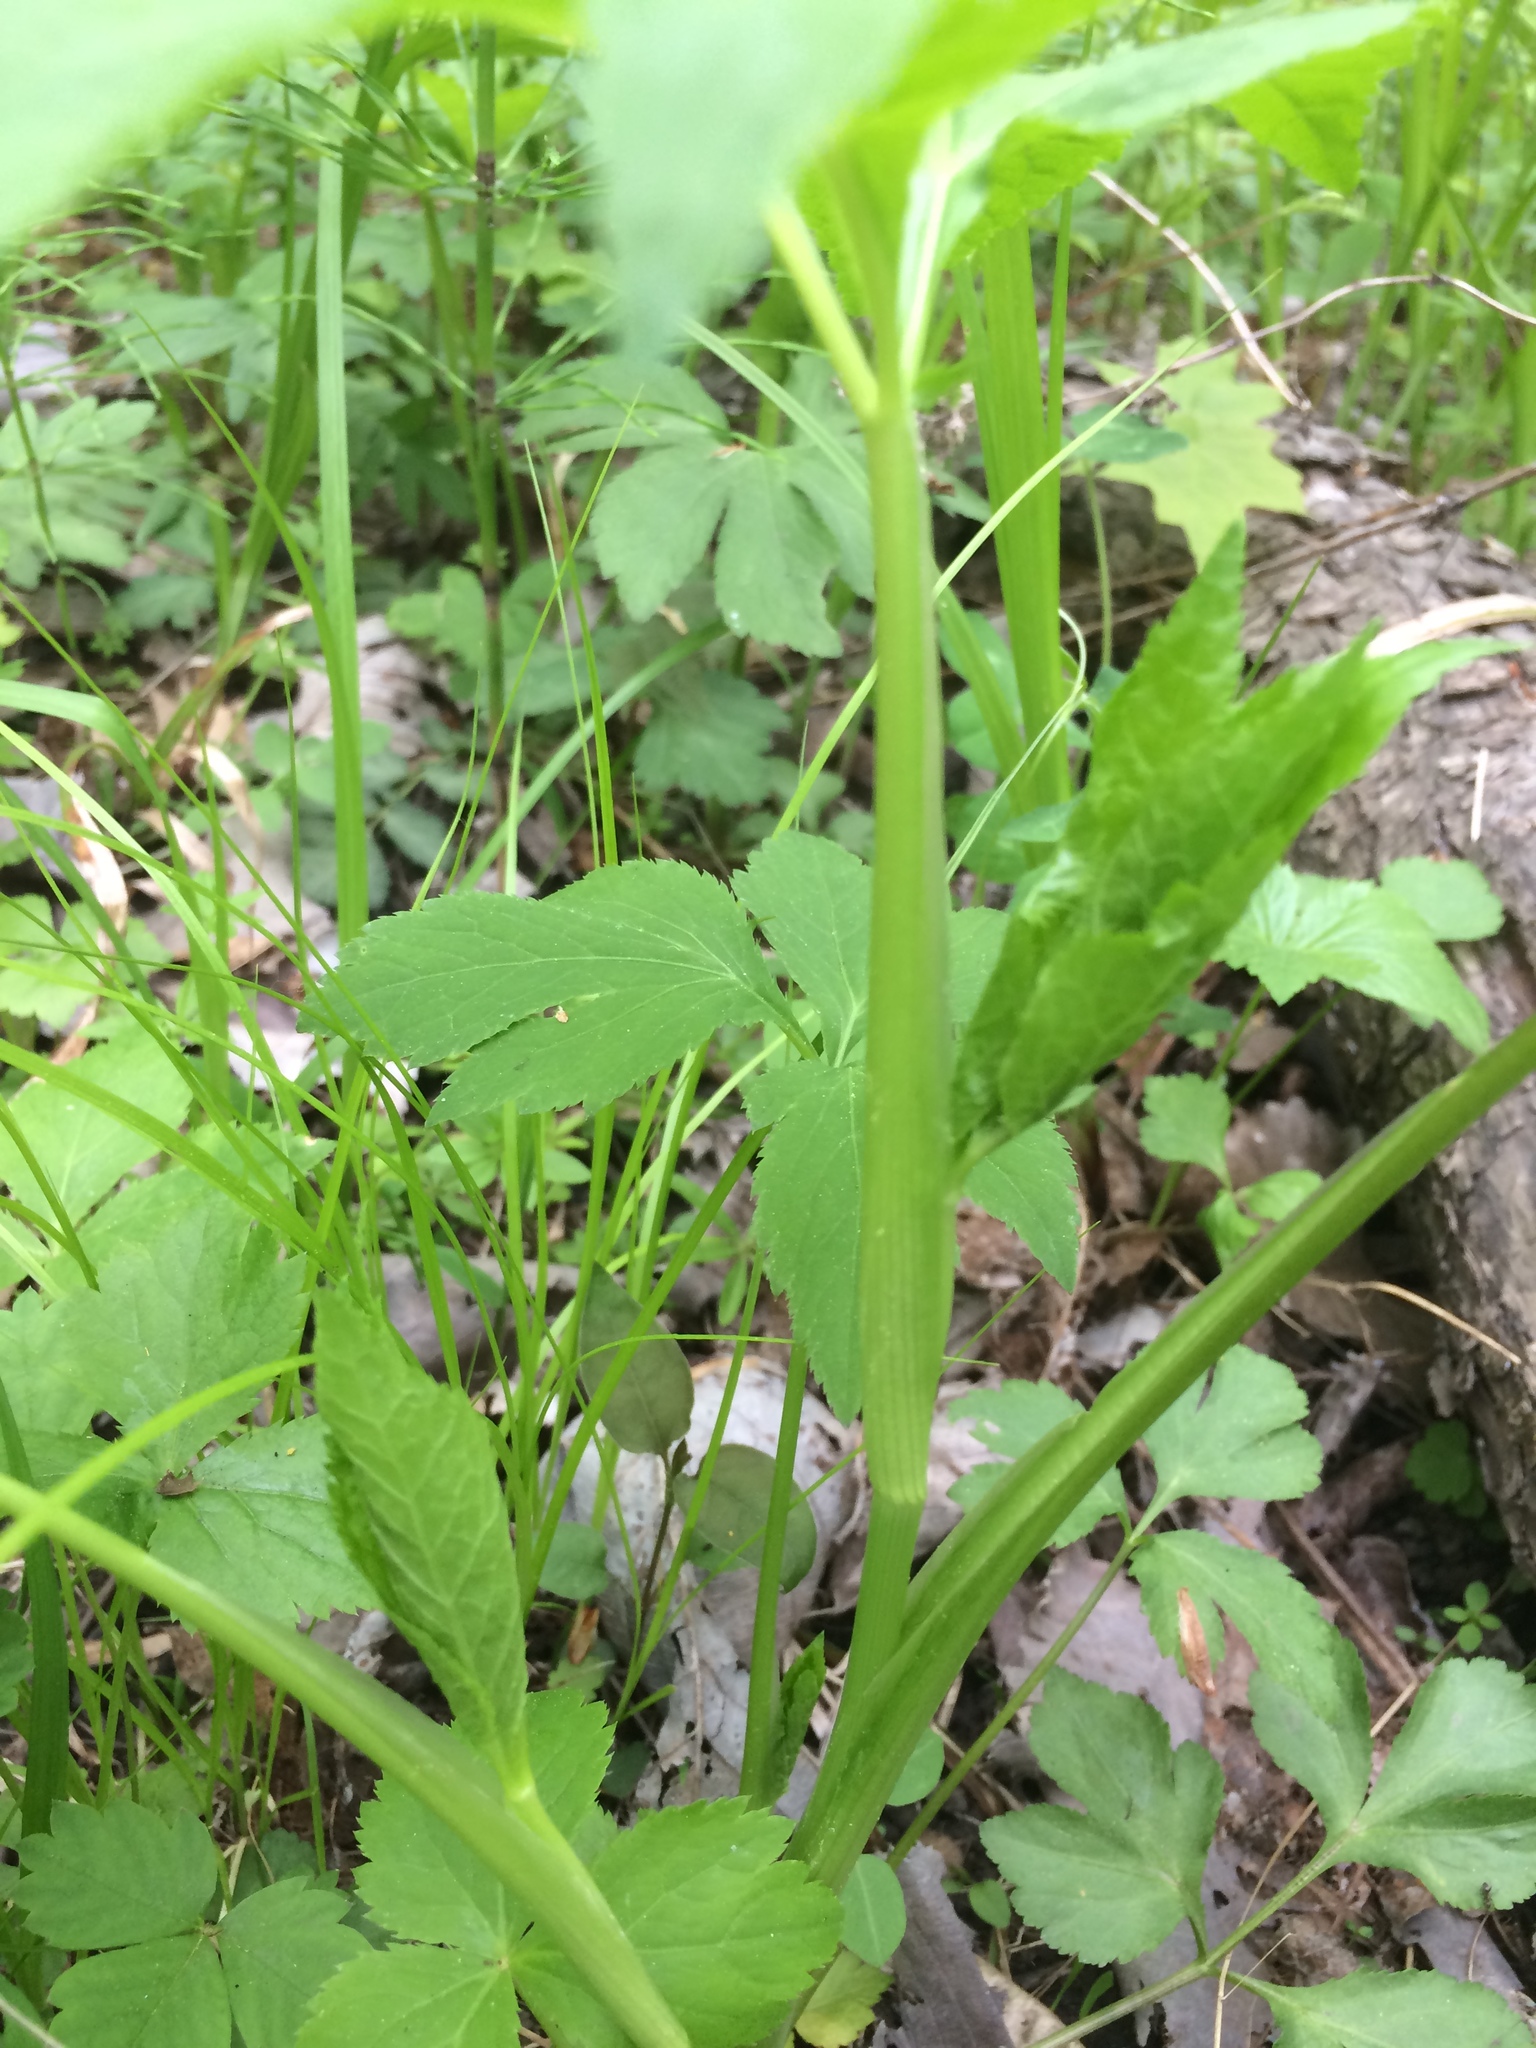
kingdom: Plantae
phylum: Tracheophyta
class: Magnoliopsida
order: Apiales
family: Apiaceae
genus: Cryptotaenia
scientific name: Cryptotaenia canadensis
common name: Honewort
